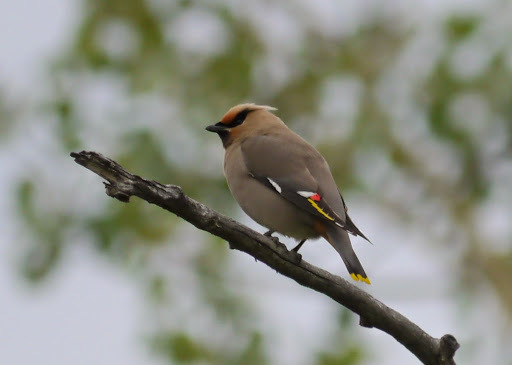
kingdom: Animalia
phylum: Chordata
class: Aves
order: Passeriformes
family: Bombycillidae
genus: Bombycilla
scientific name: Bombycilla garrulus
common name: Bohemian waxwing
